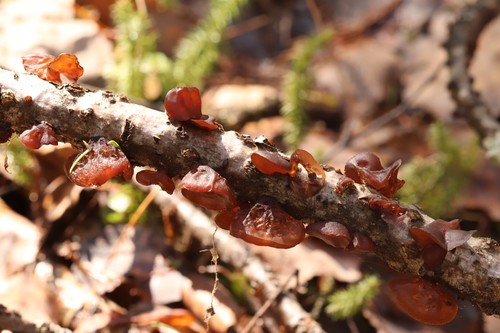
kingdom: Fungi
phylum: Basidiomycota
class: Agaricomycetes
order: Auriculariales
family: Auriculariaceae
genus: Exidia
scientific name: Exidia recisa
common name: Amber jelly
